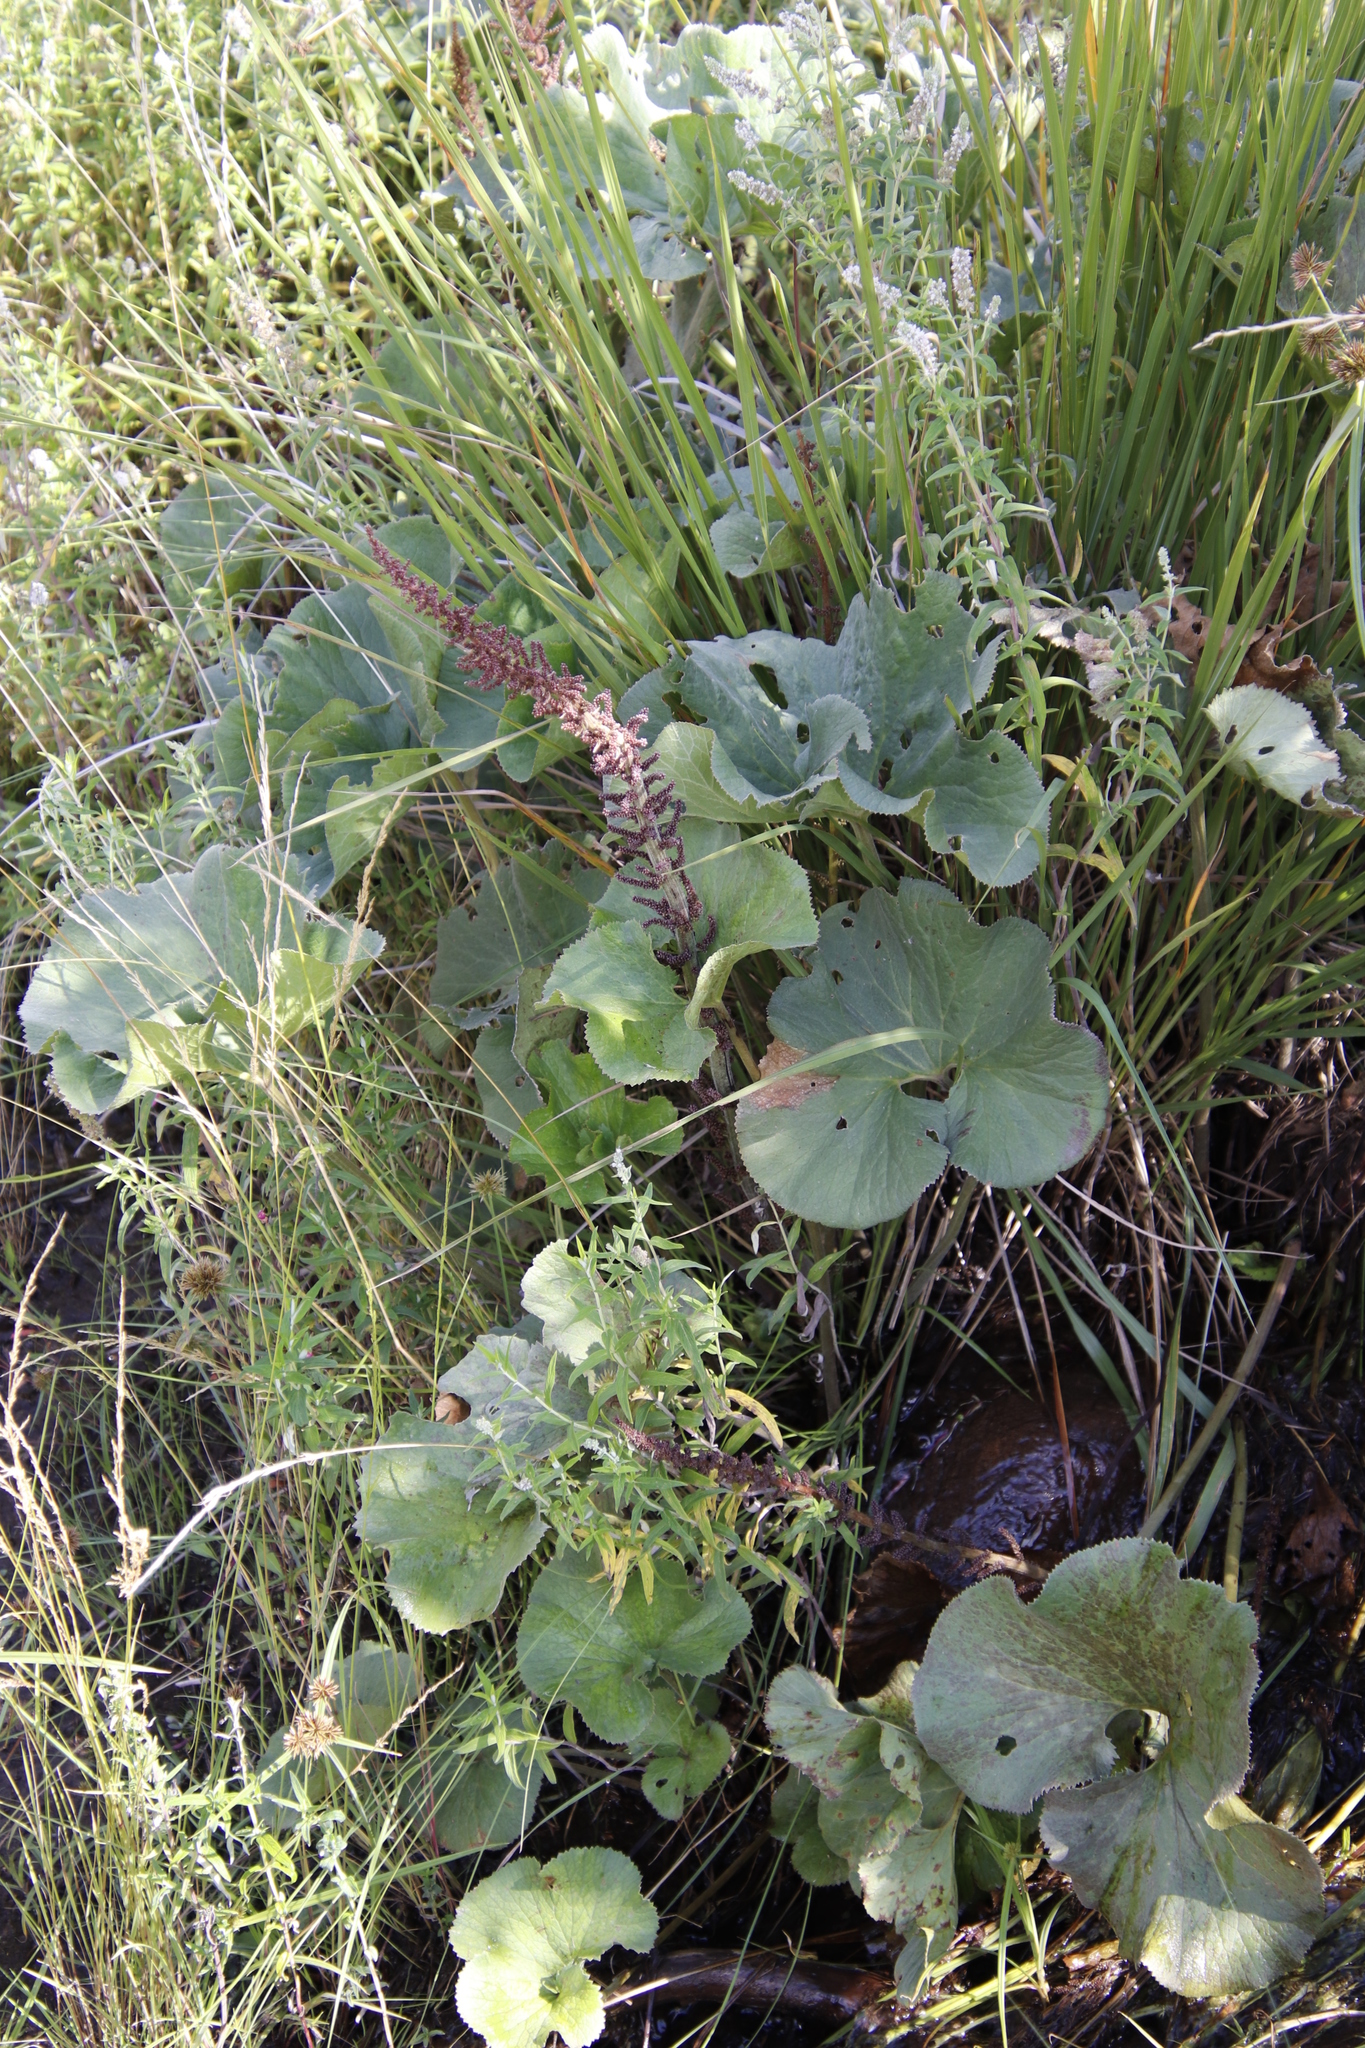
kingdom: Plantae
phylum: Tracheophyta
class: Magnoliopsida
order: Gunnerales
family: Gunneraceae
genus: Gunnera
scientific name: Gunnera perpensa
